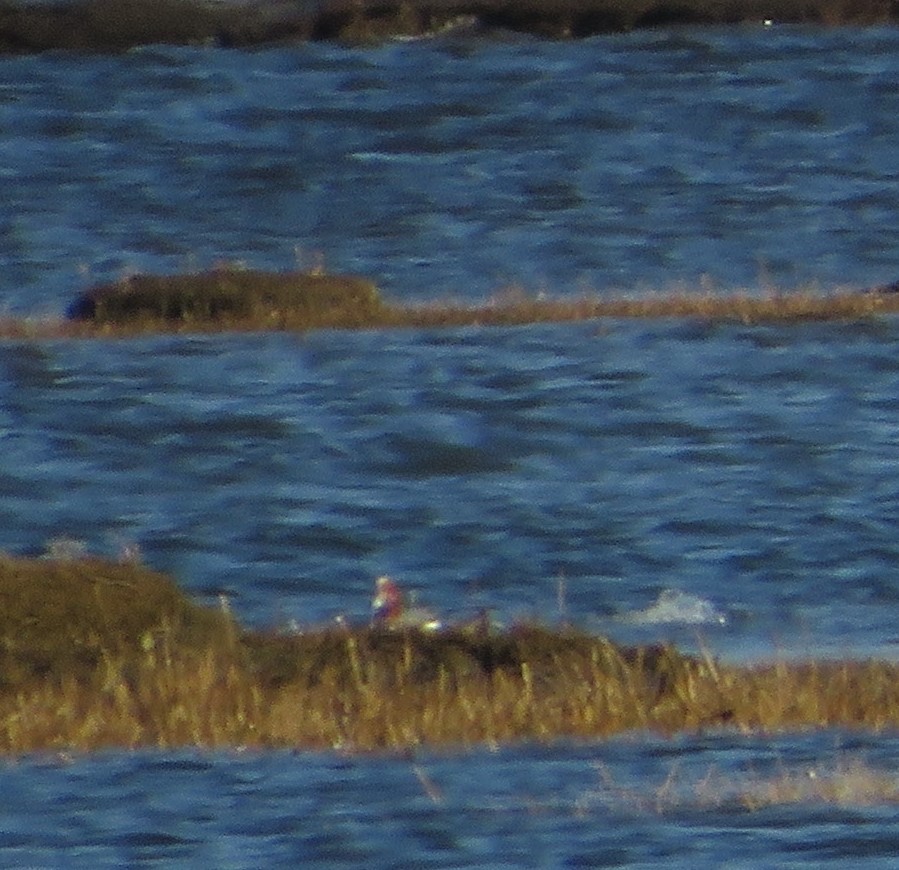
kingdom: Animalia
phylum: Chordata
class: Aves
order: Anseriformes
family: Anatidae
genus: Mareca
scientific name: Mareca penelope
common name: Eurasian wigeon
